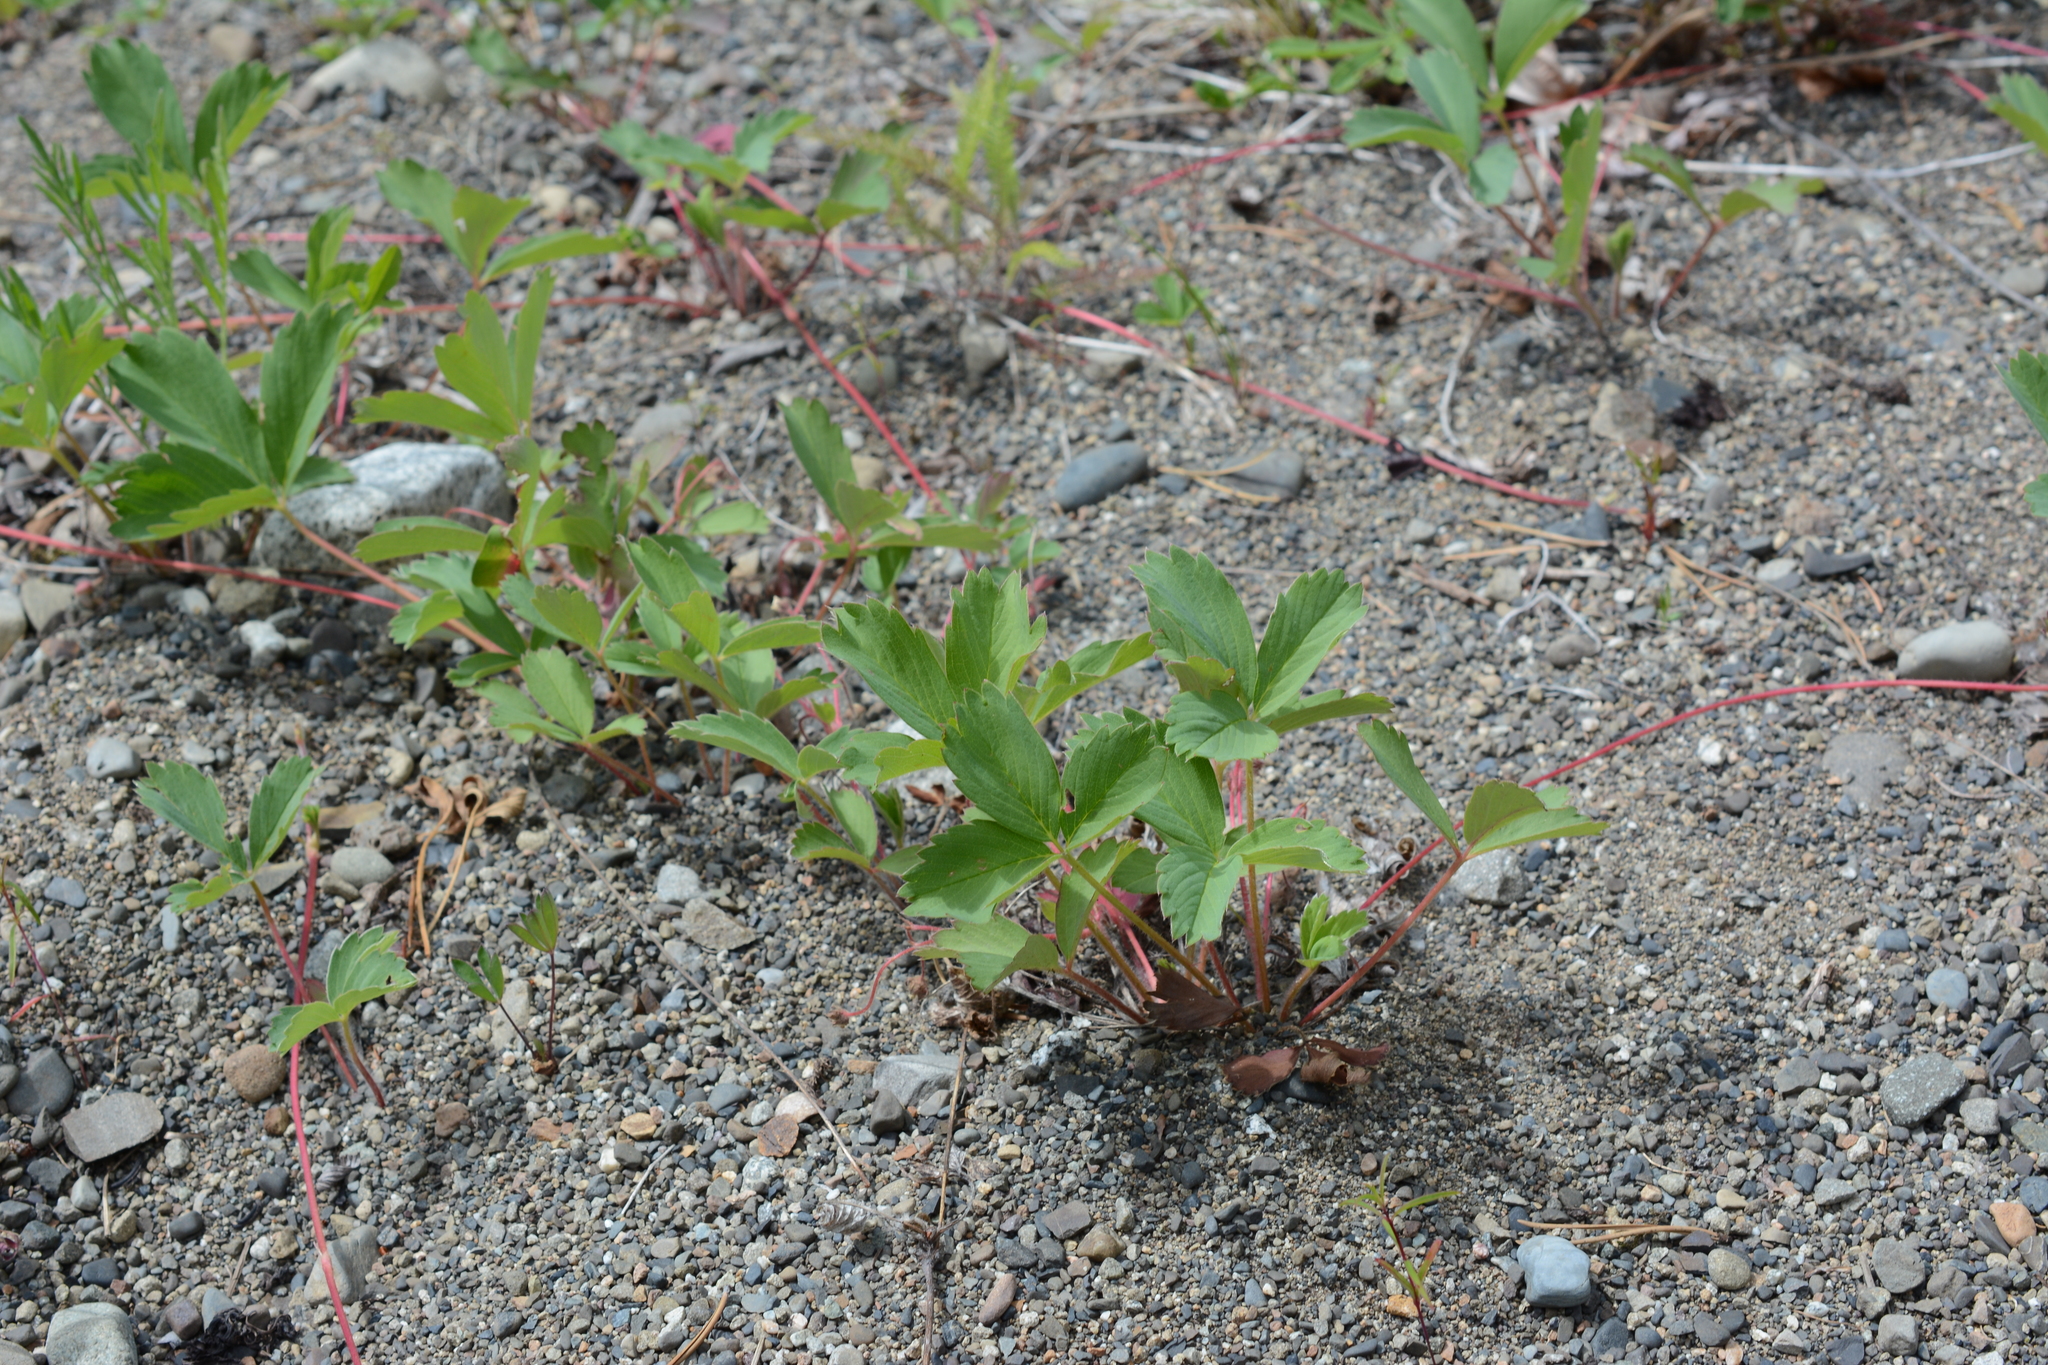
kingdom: Plantae
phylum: Tracheophyta
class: Magnoliopsida
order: Rosales
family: Rosaceae
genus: Fragaria
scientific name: Fragaria virginiana
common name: Thickleaved wild strawberry
